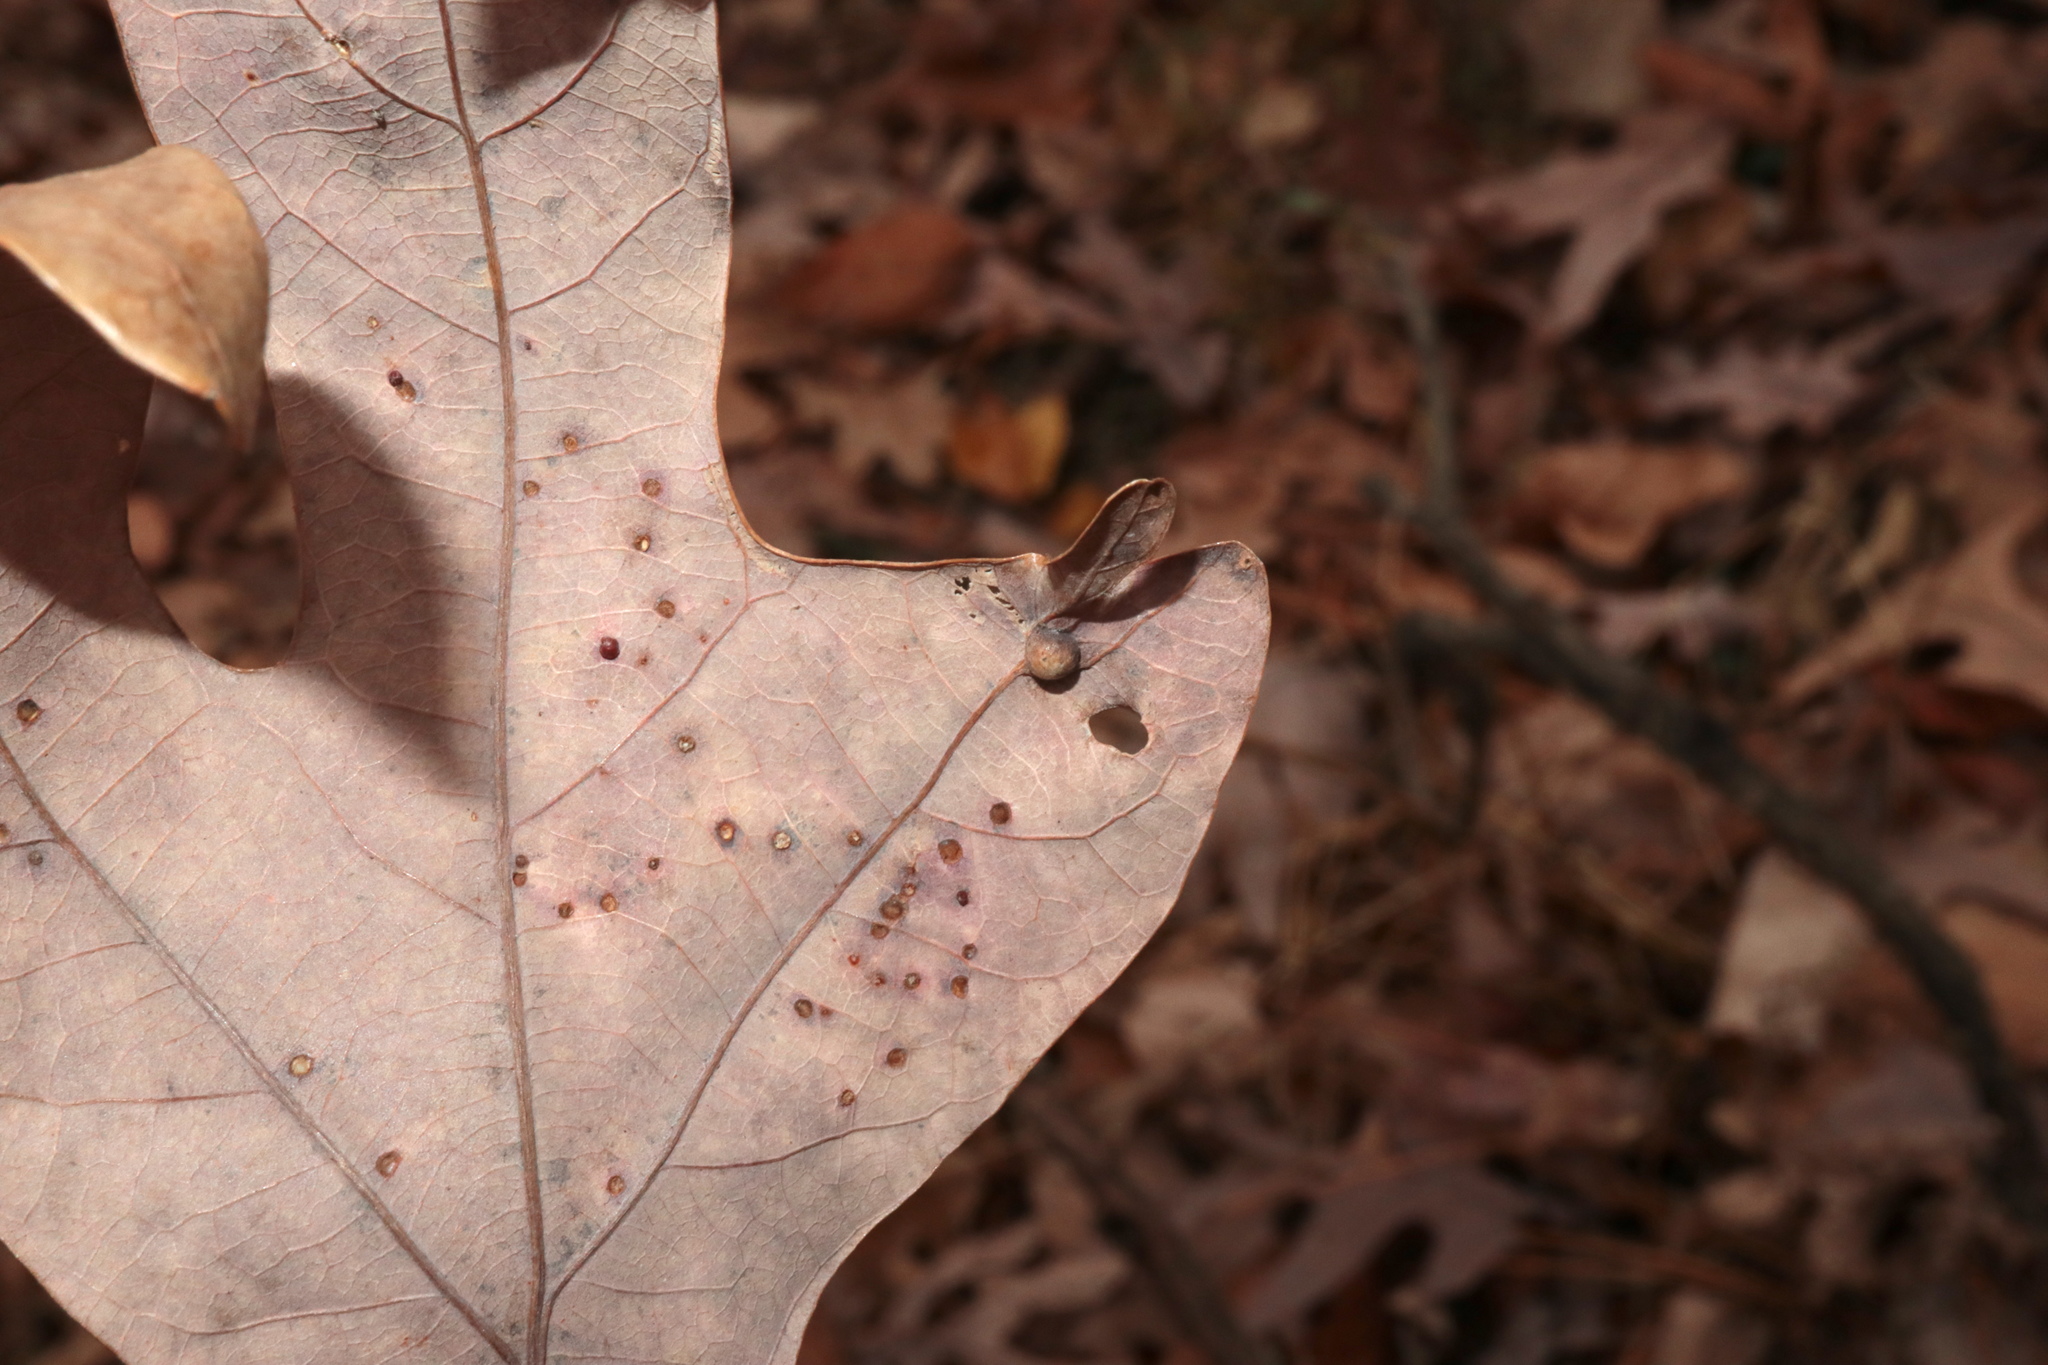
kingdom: Animalia
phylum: Arthropoda
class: Insecta
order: Hymenoptera
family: Cynipidae
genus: Callirhytis
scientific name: Callirhytis
